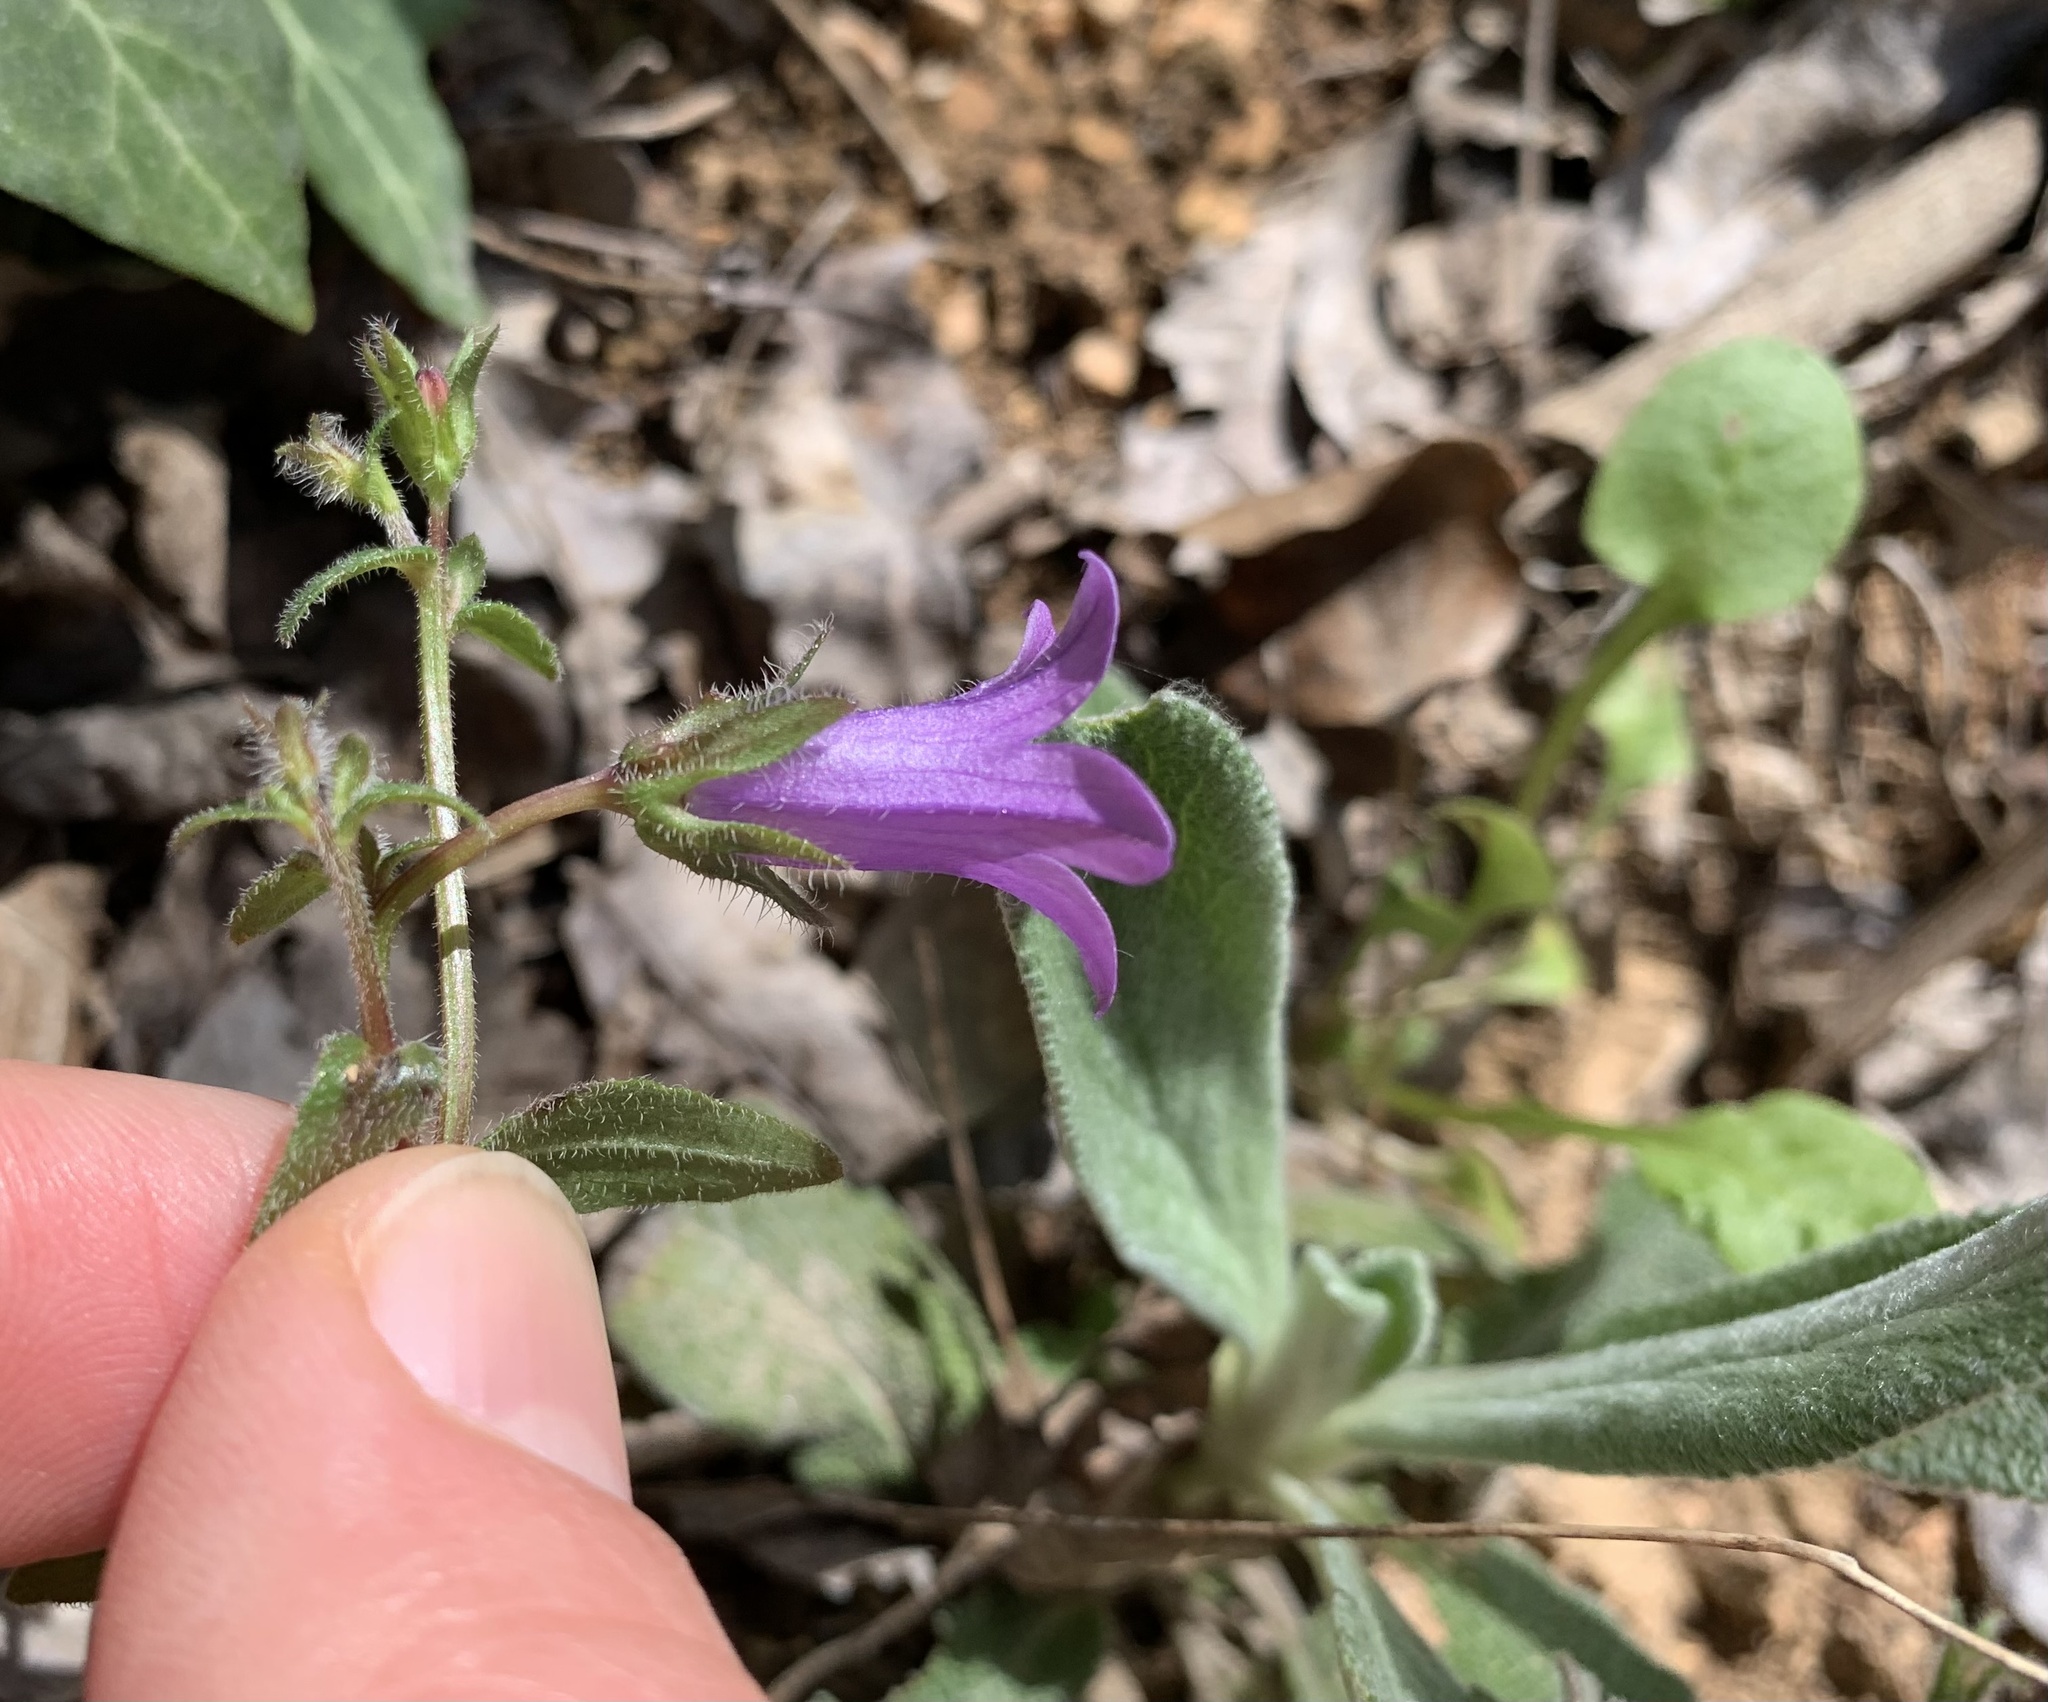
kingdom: Plantae
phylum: Tracheophyta
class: Magnoliopsida
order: Asterales
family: Campanulaceae
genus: Campanula
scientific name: Campanula sibirica
